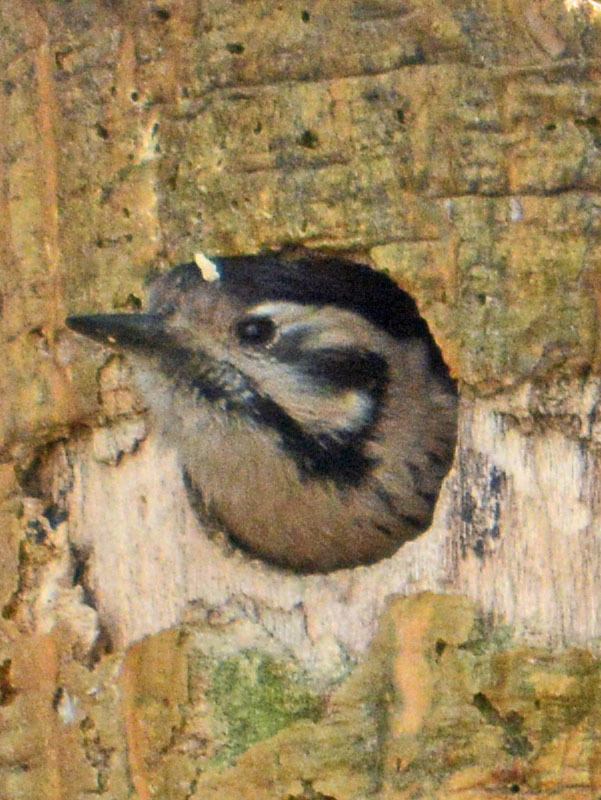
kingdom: Animalia
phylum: Chordata
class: Aves
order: Piciformes
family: Picidae
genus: Dryobates
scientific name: Dryobates scalaris
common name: Ladder-backed woodpecker
